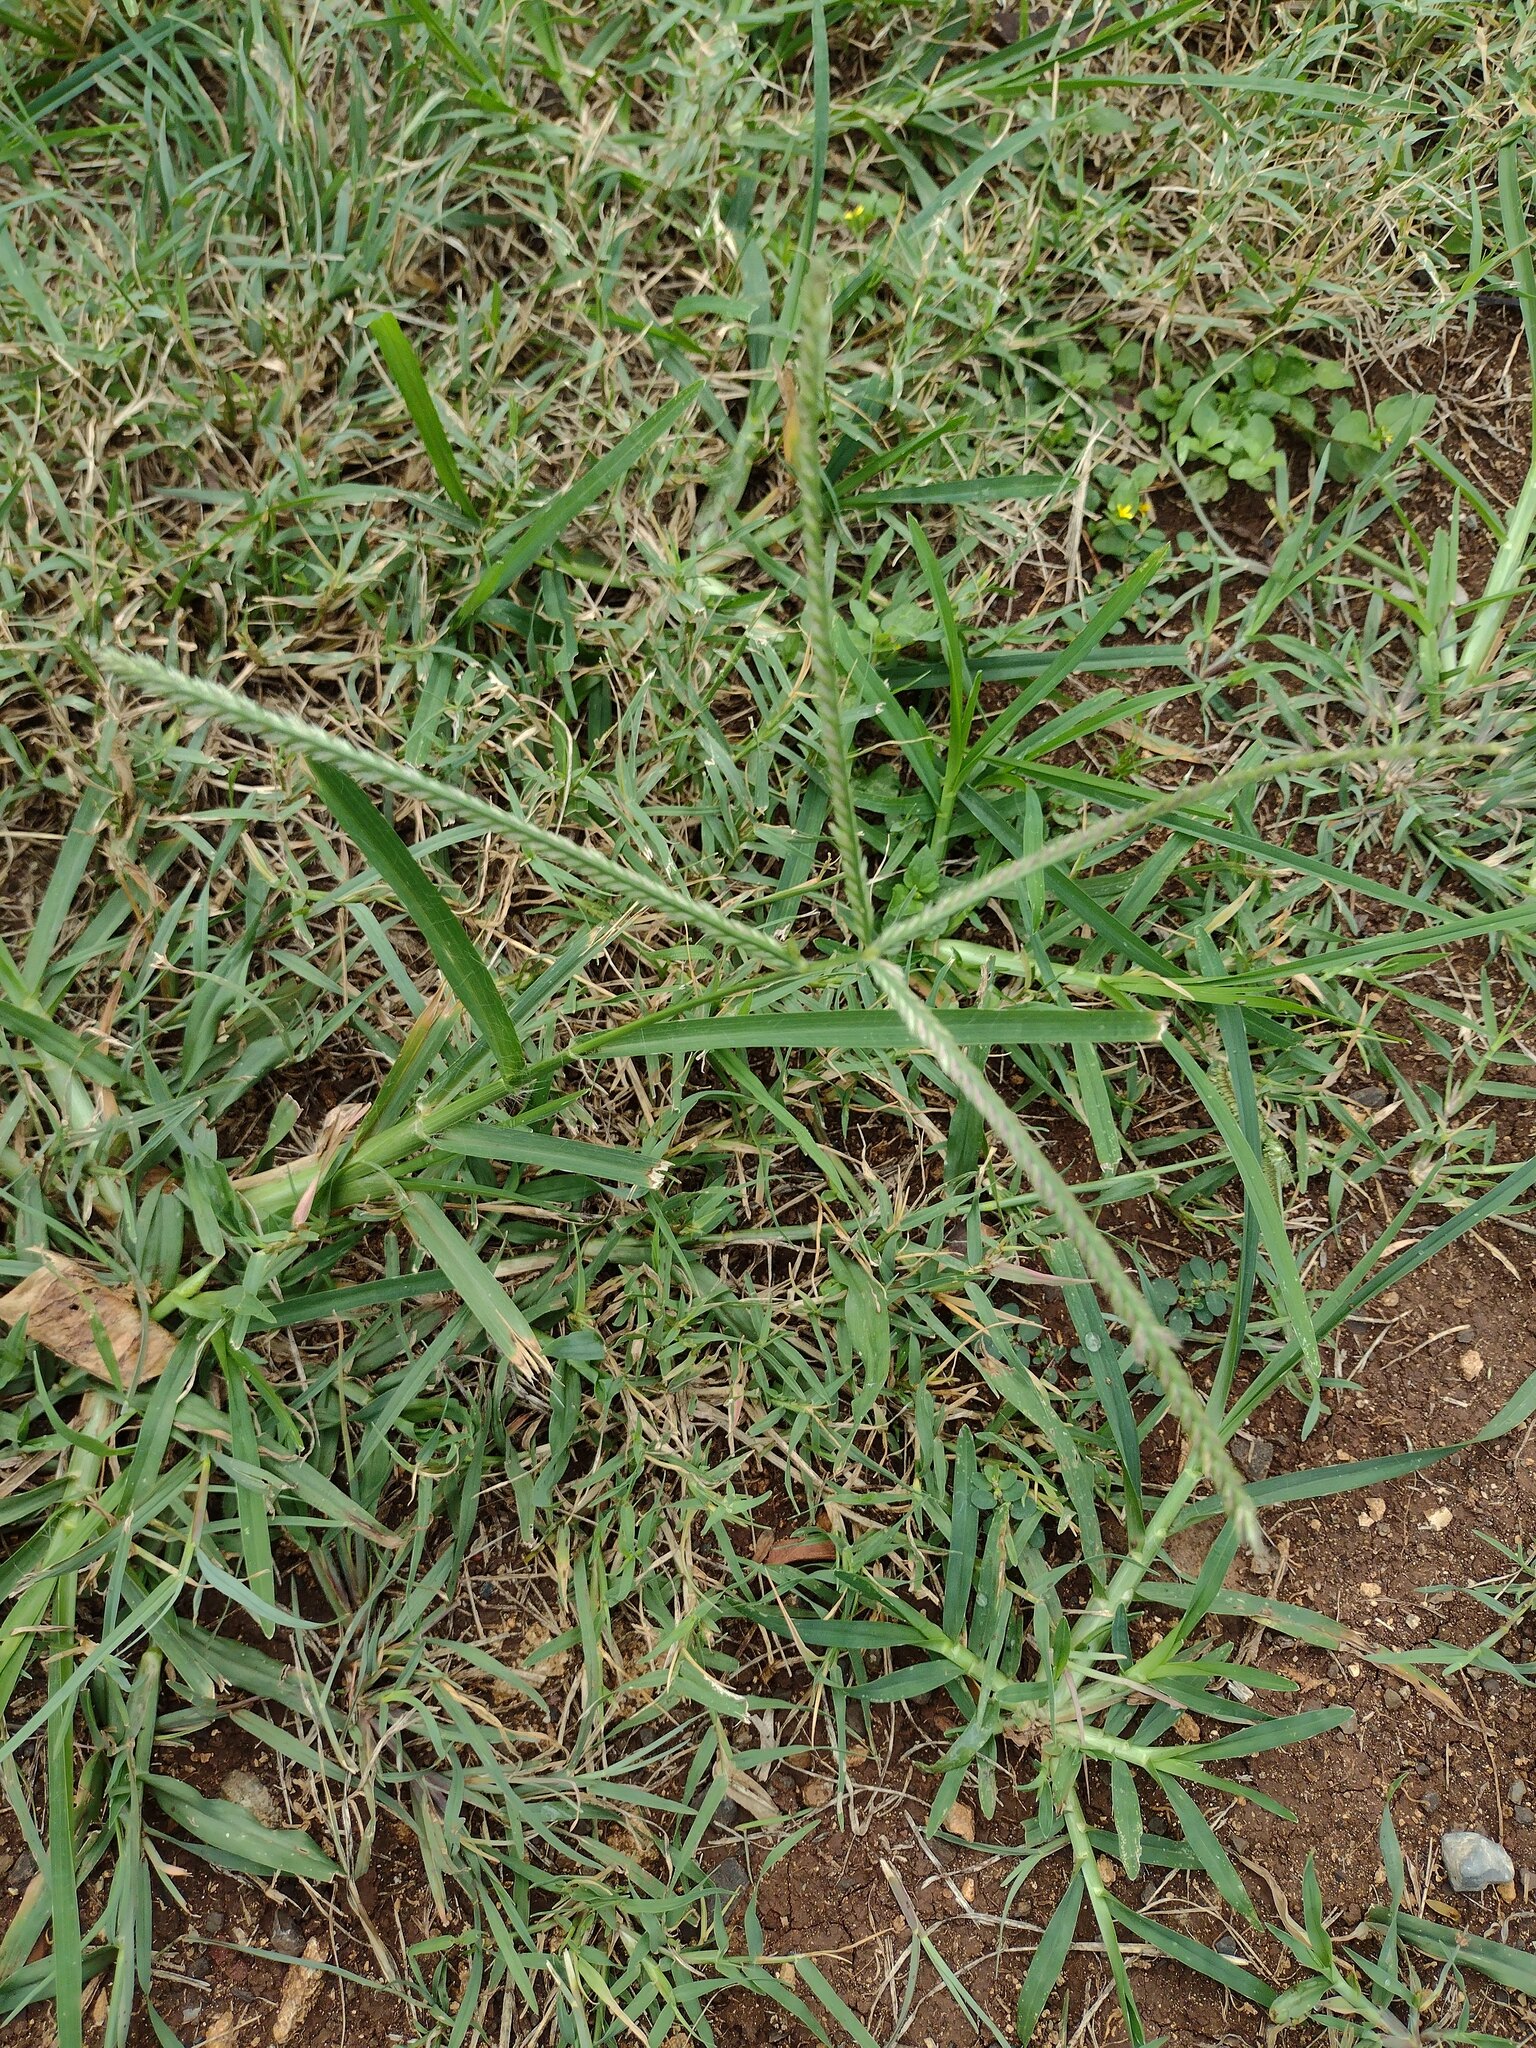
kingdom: Plantae
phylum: Tracheophyta
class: Liliopsida
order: Poales
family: Poaceae
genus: Eleusine
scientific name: Eleusine indica
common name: Yard-grass
